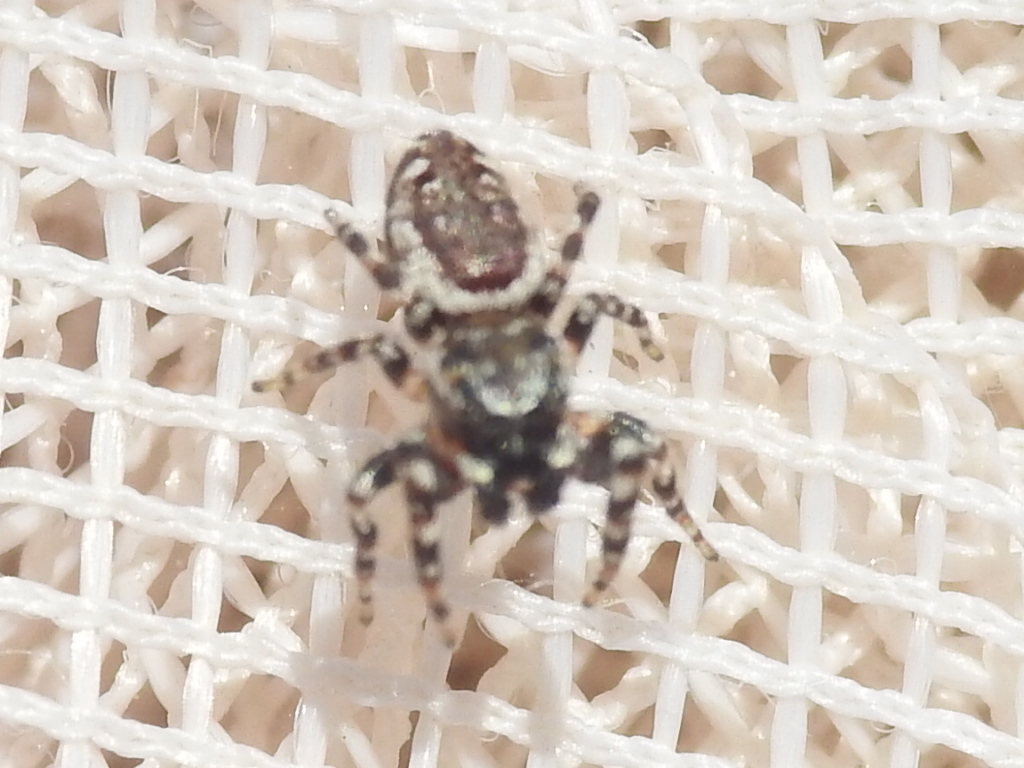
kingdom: Animalia
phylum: Arthropoda
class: Arachnida
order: Araneae
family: Salticidae
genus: Pelegrina
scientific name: Pelegrina galathea
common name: Jumping spiders
